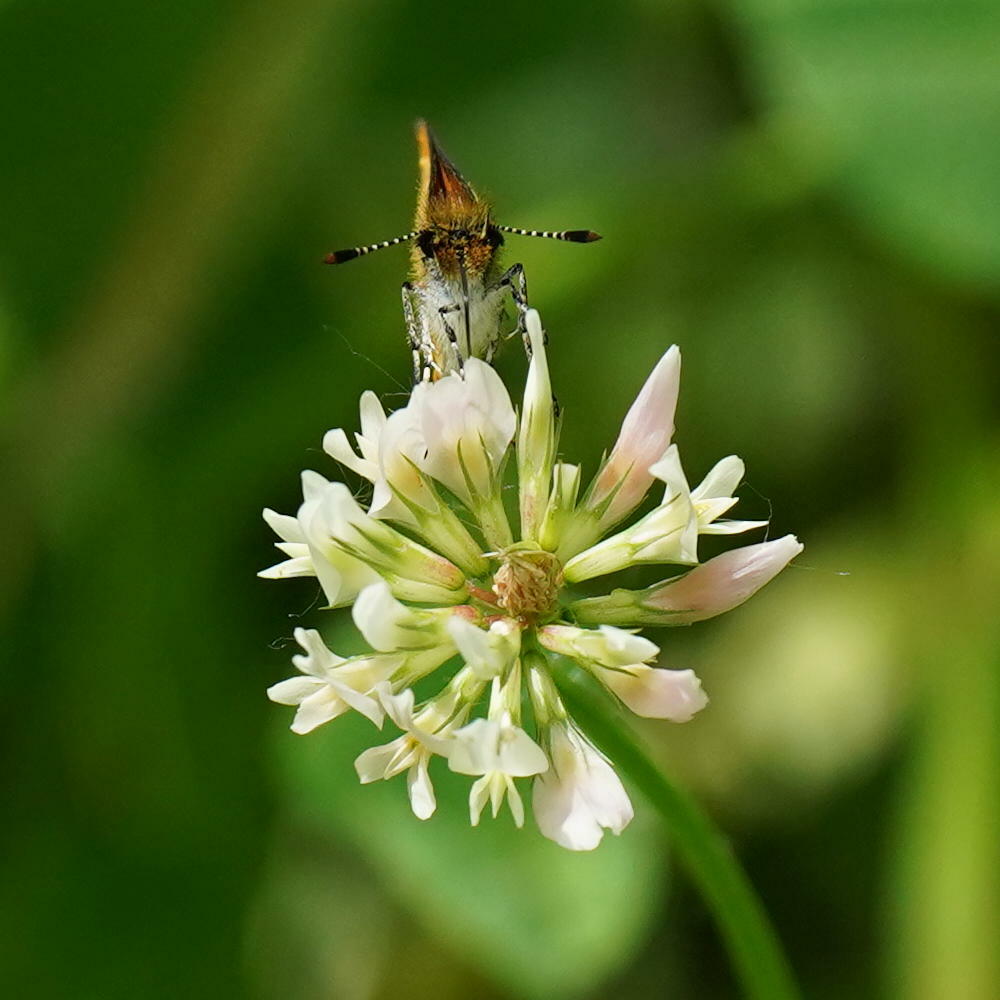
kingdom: Animalia
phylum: Arthropoda
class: Insecta
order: Lepidoptera
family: Hesperiidae
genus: Ancyloxypha
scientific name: Ancyloxypha numitor
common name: Least skipper
